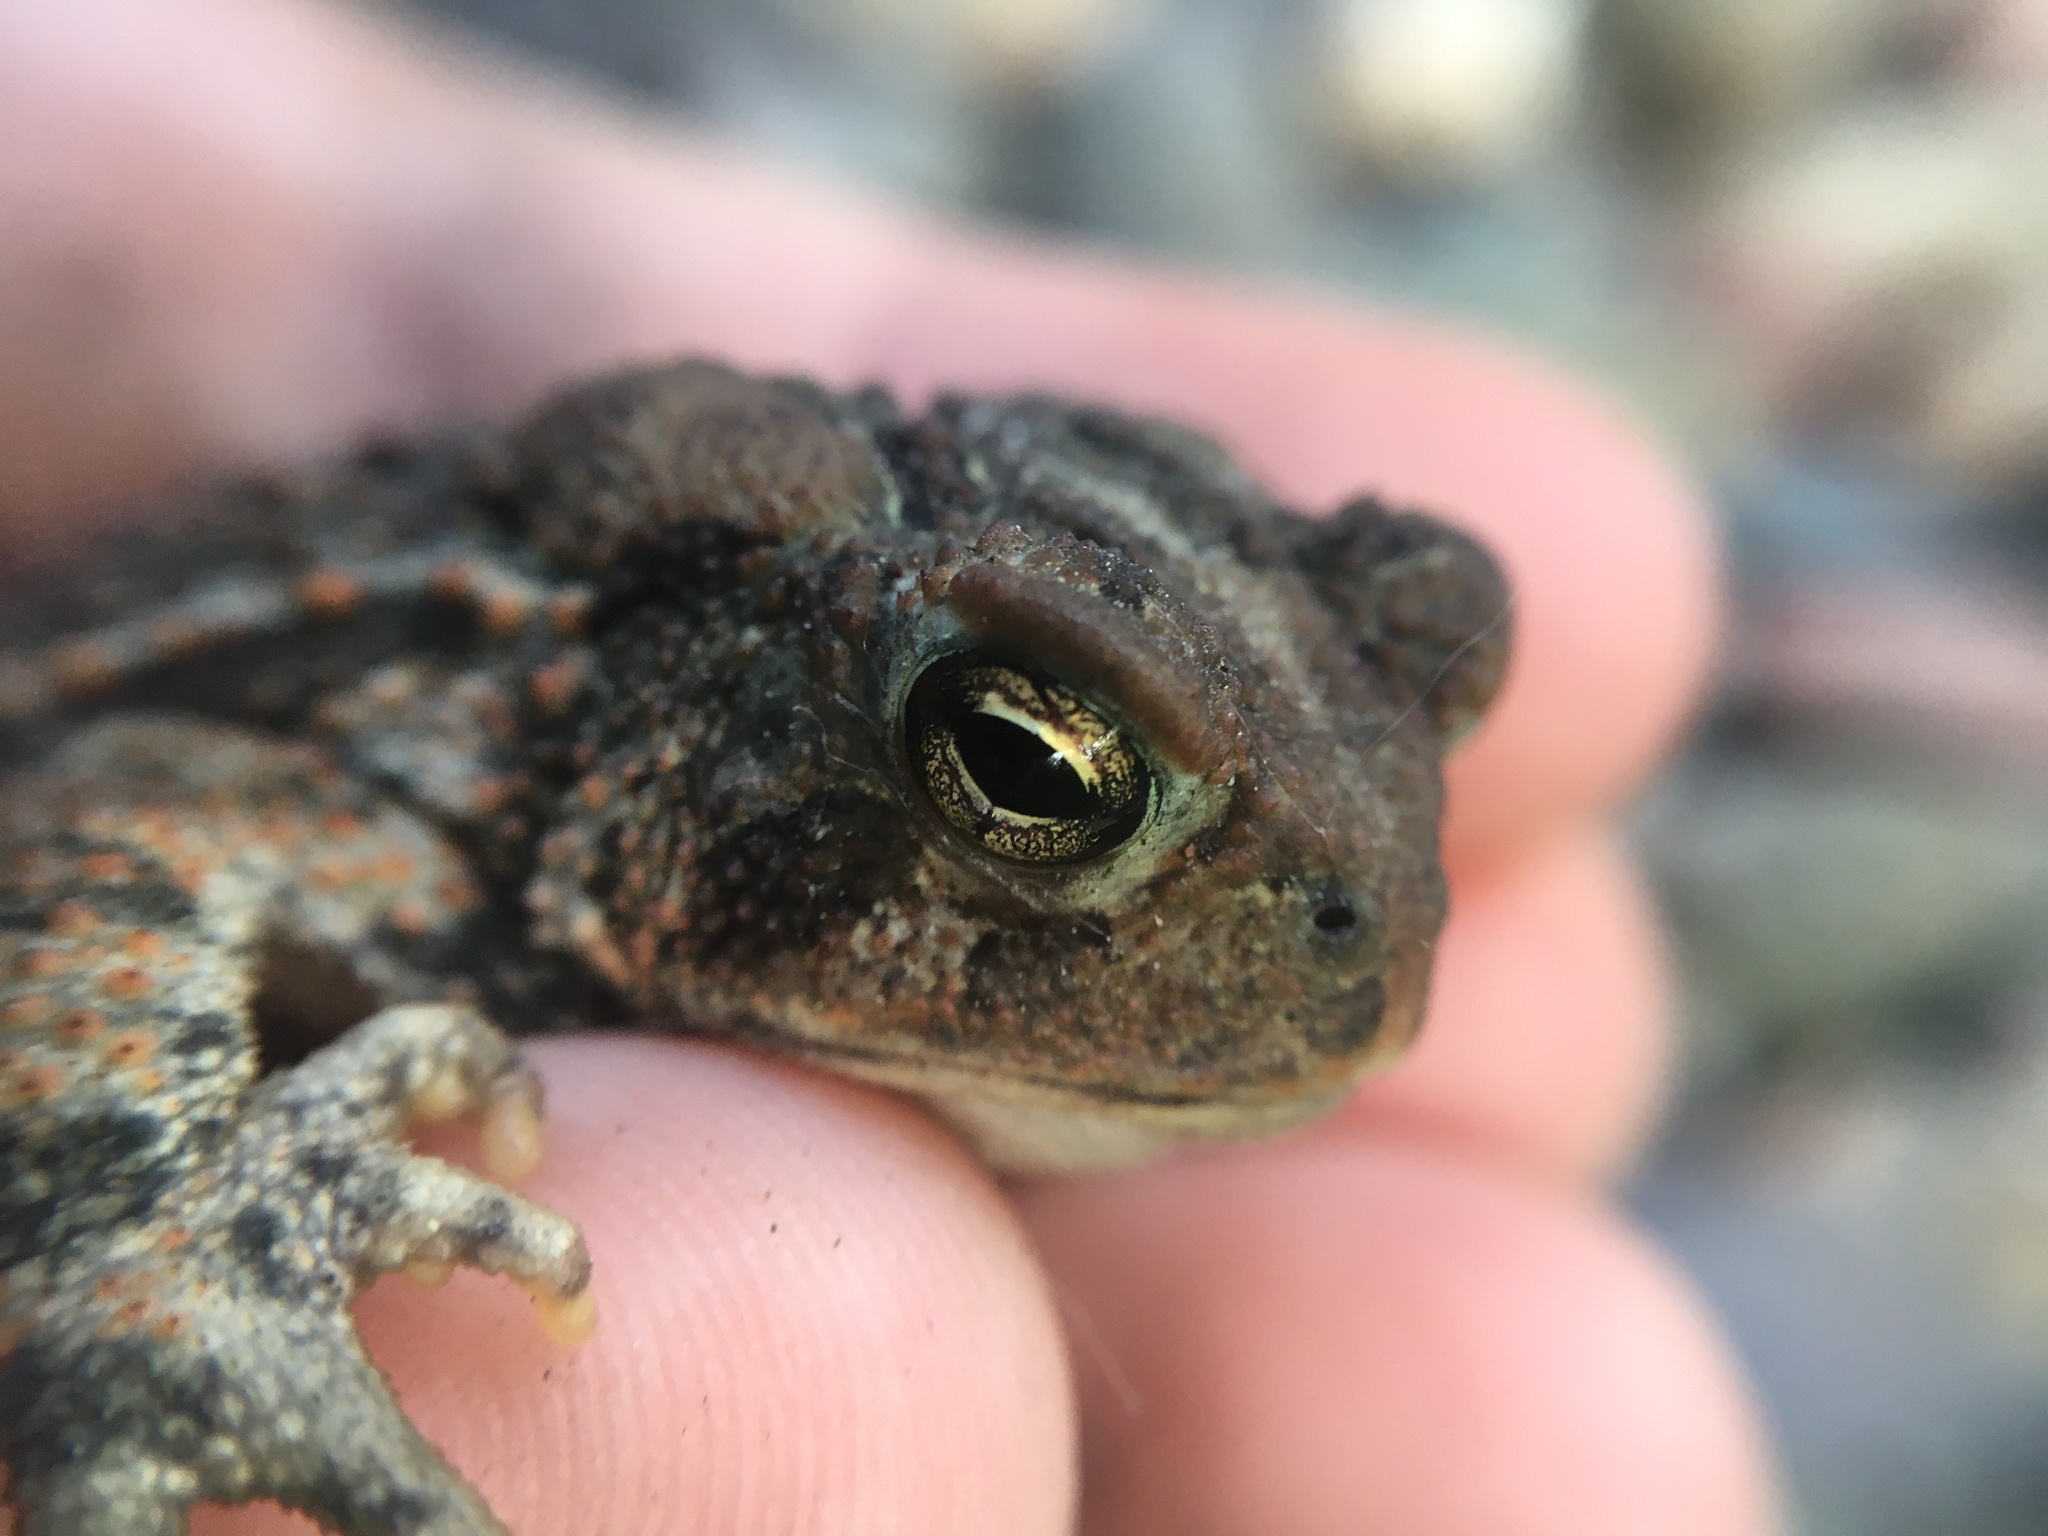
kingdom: Animalia
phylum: Chordata
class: Amphibia
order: Anura
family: Bufonidae
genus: Anaxyrus
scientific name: Anaxyrus americanus
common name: American toad
